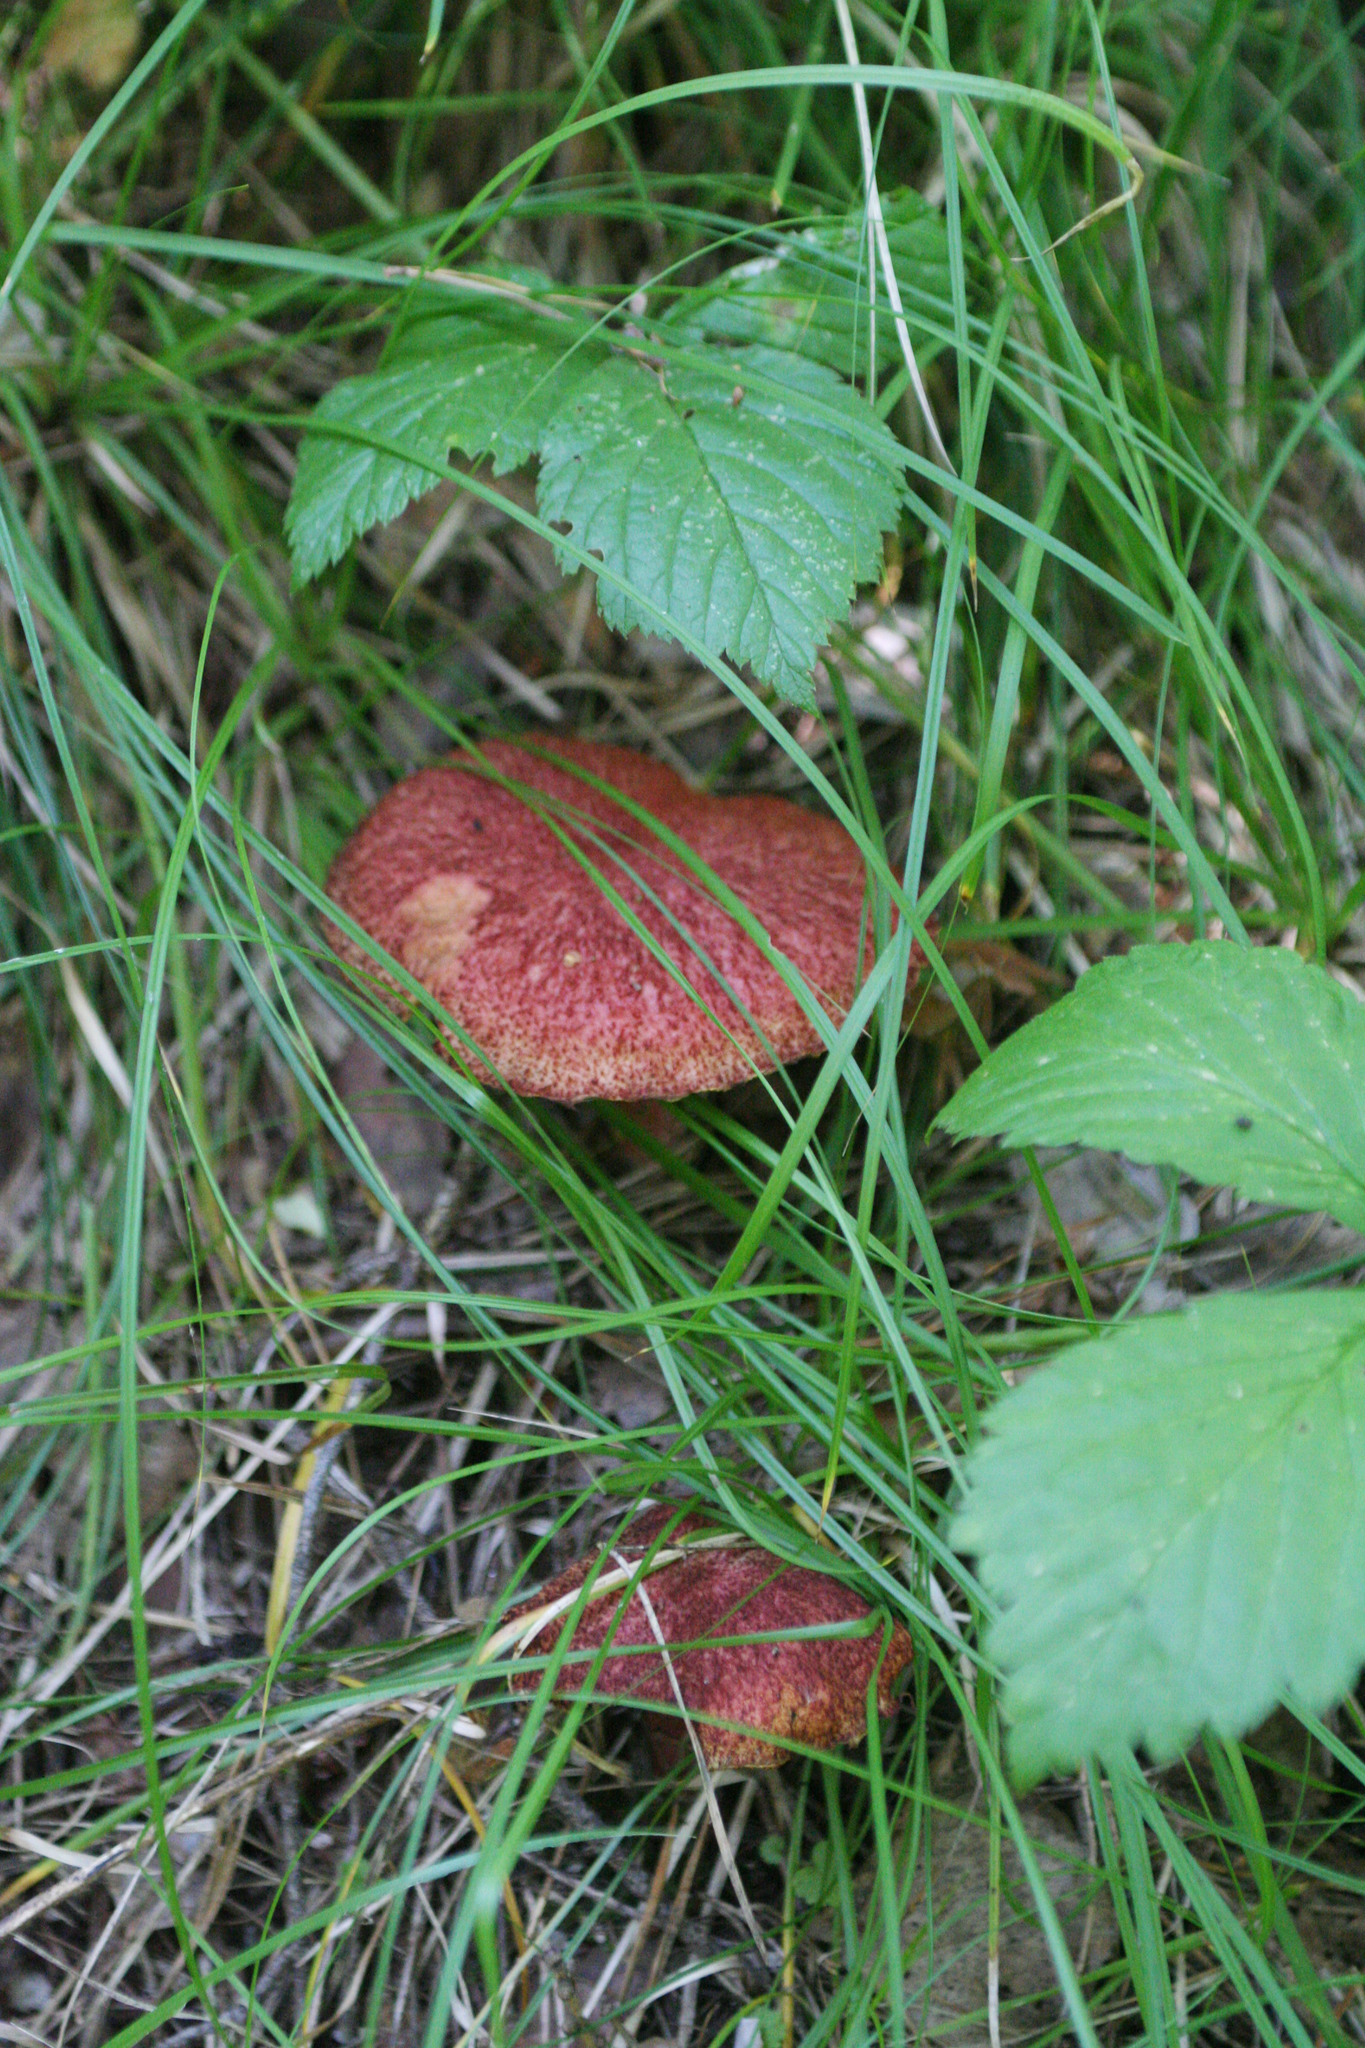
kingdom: Fungi
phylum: Basidiomycota
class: Agaricomycetes
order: Boletales
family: Suillaceae
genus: Boletinus
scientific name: Boletinus asiaticus
